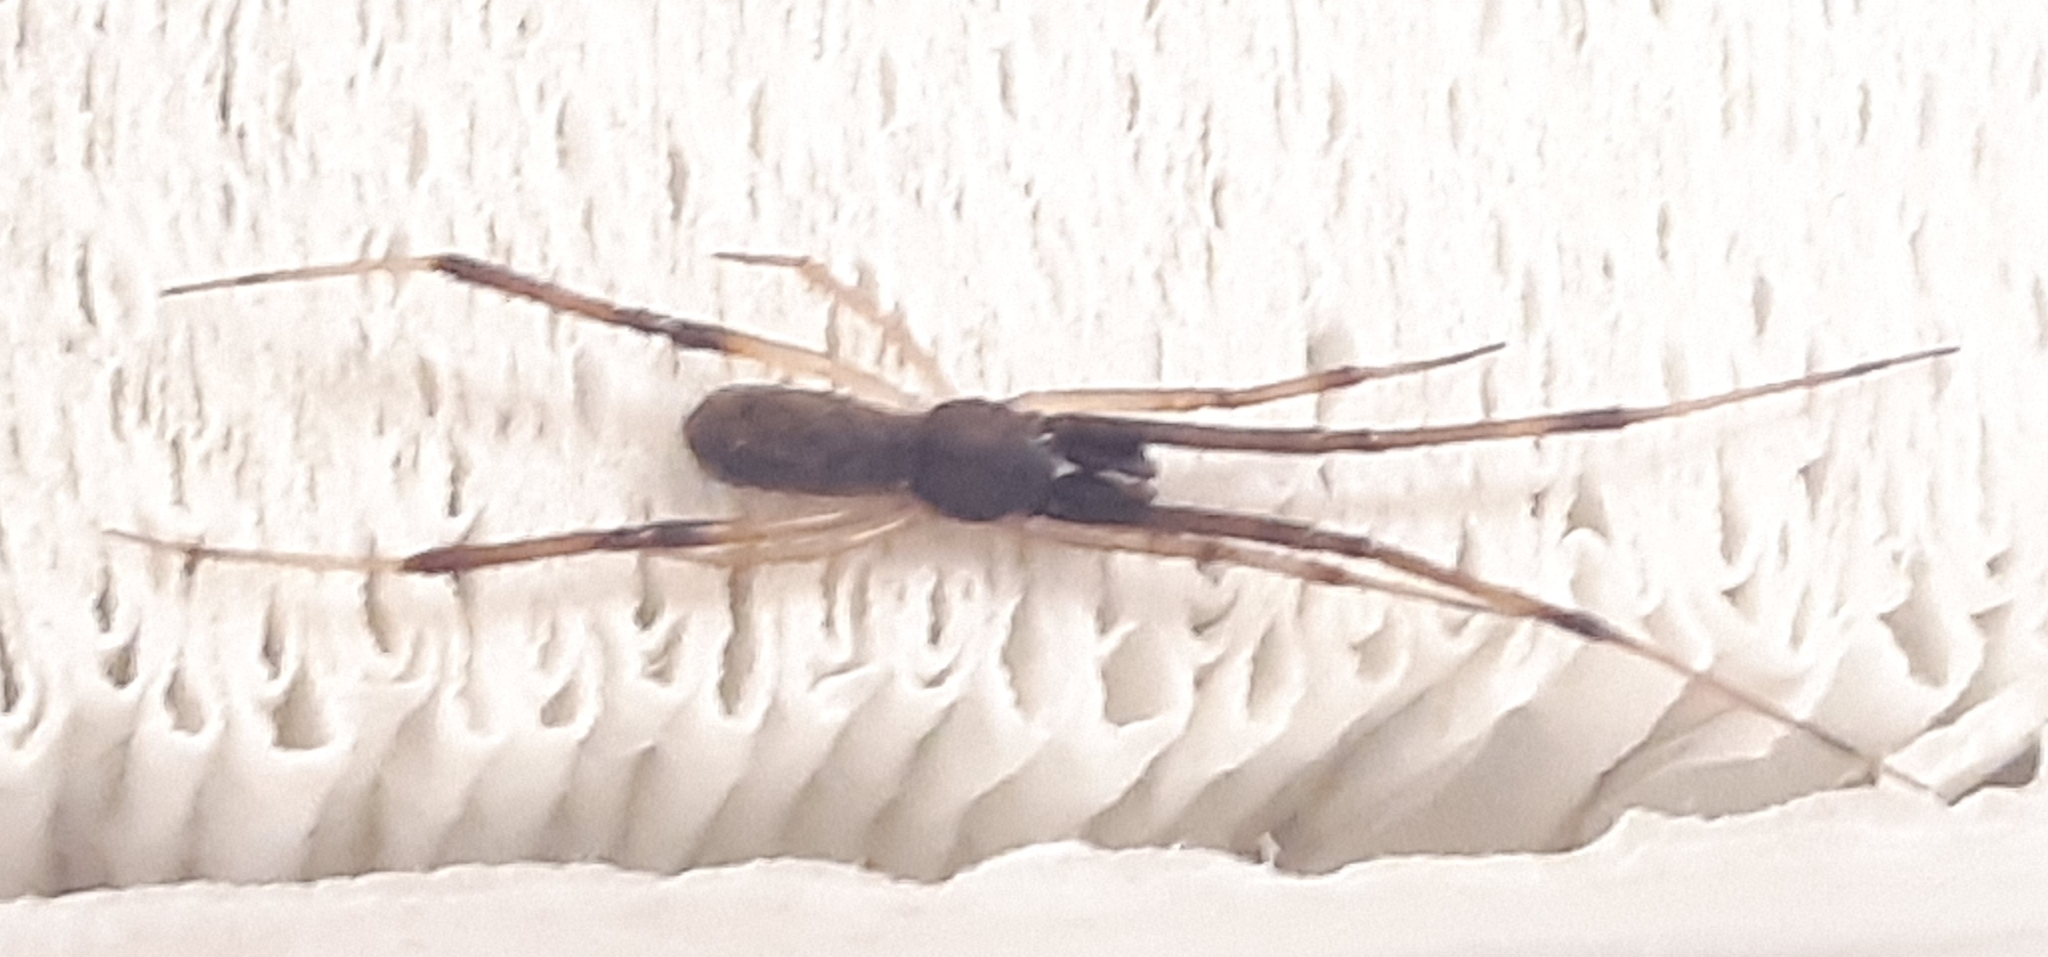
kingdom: Animalia
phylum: Arthropoda
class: Arachnida
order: Araneae
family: Theridiidae
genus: Episinus
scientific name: Episinus truncatus
